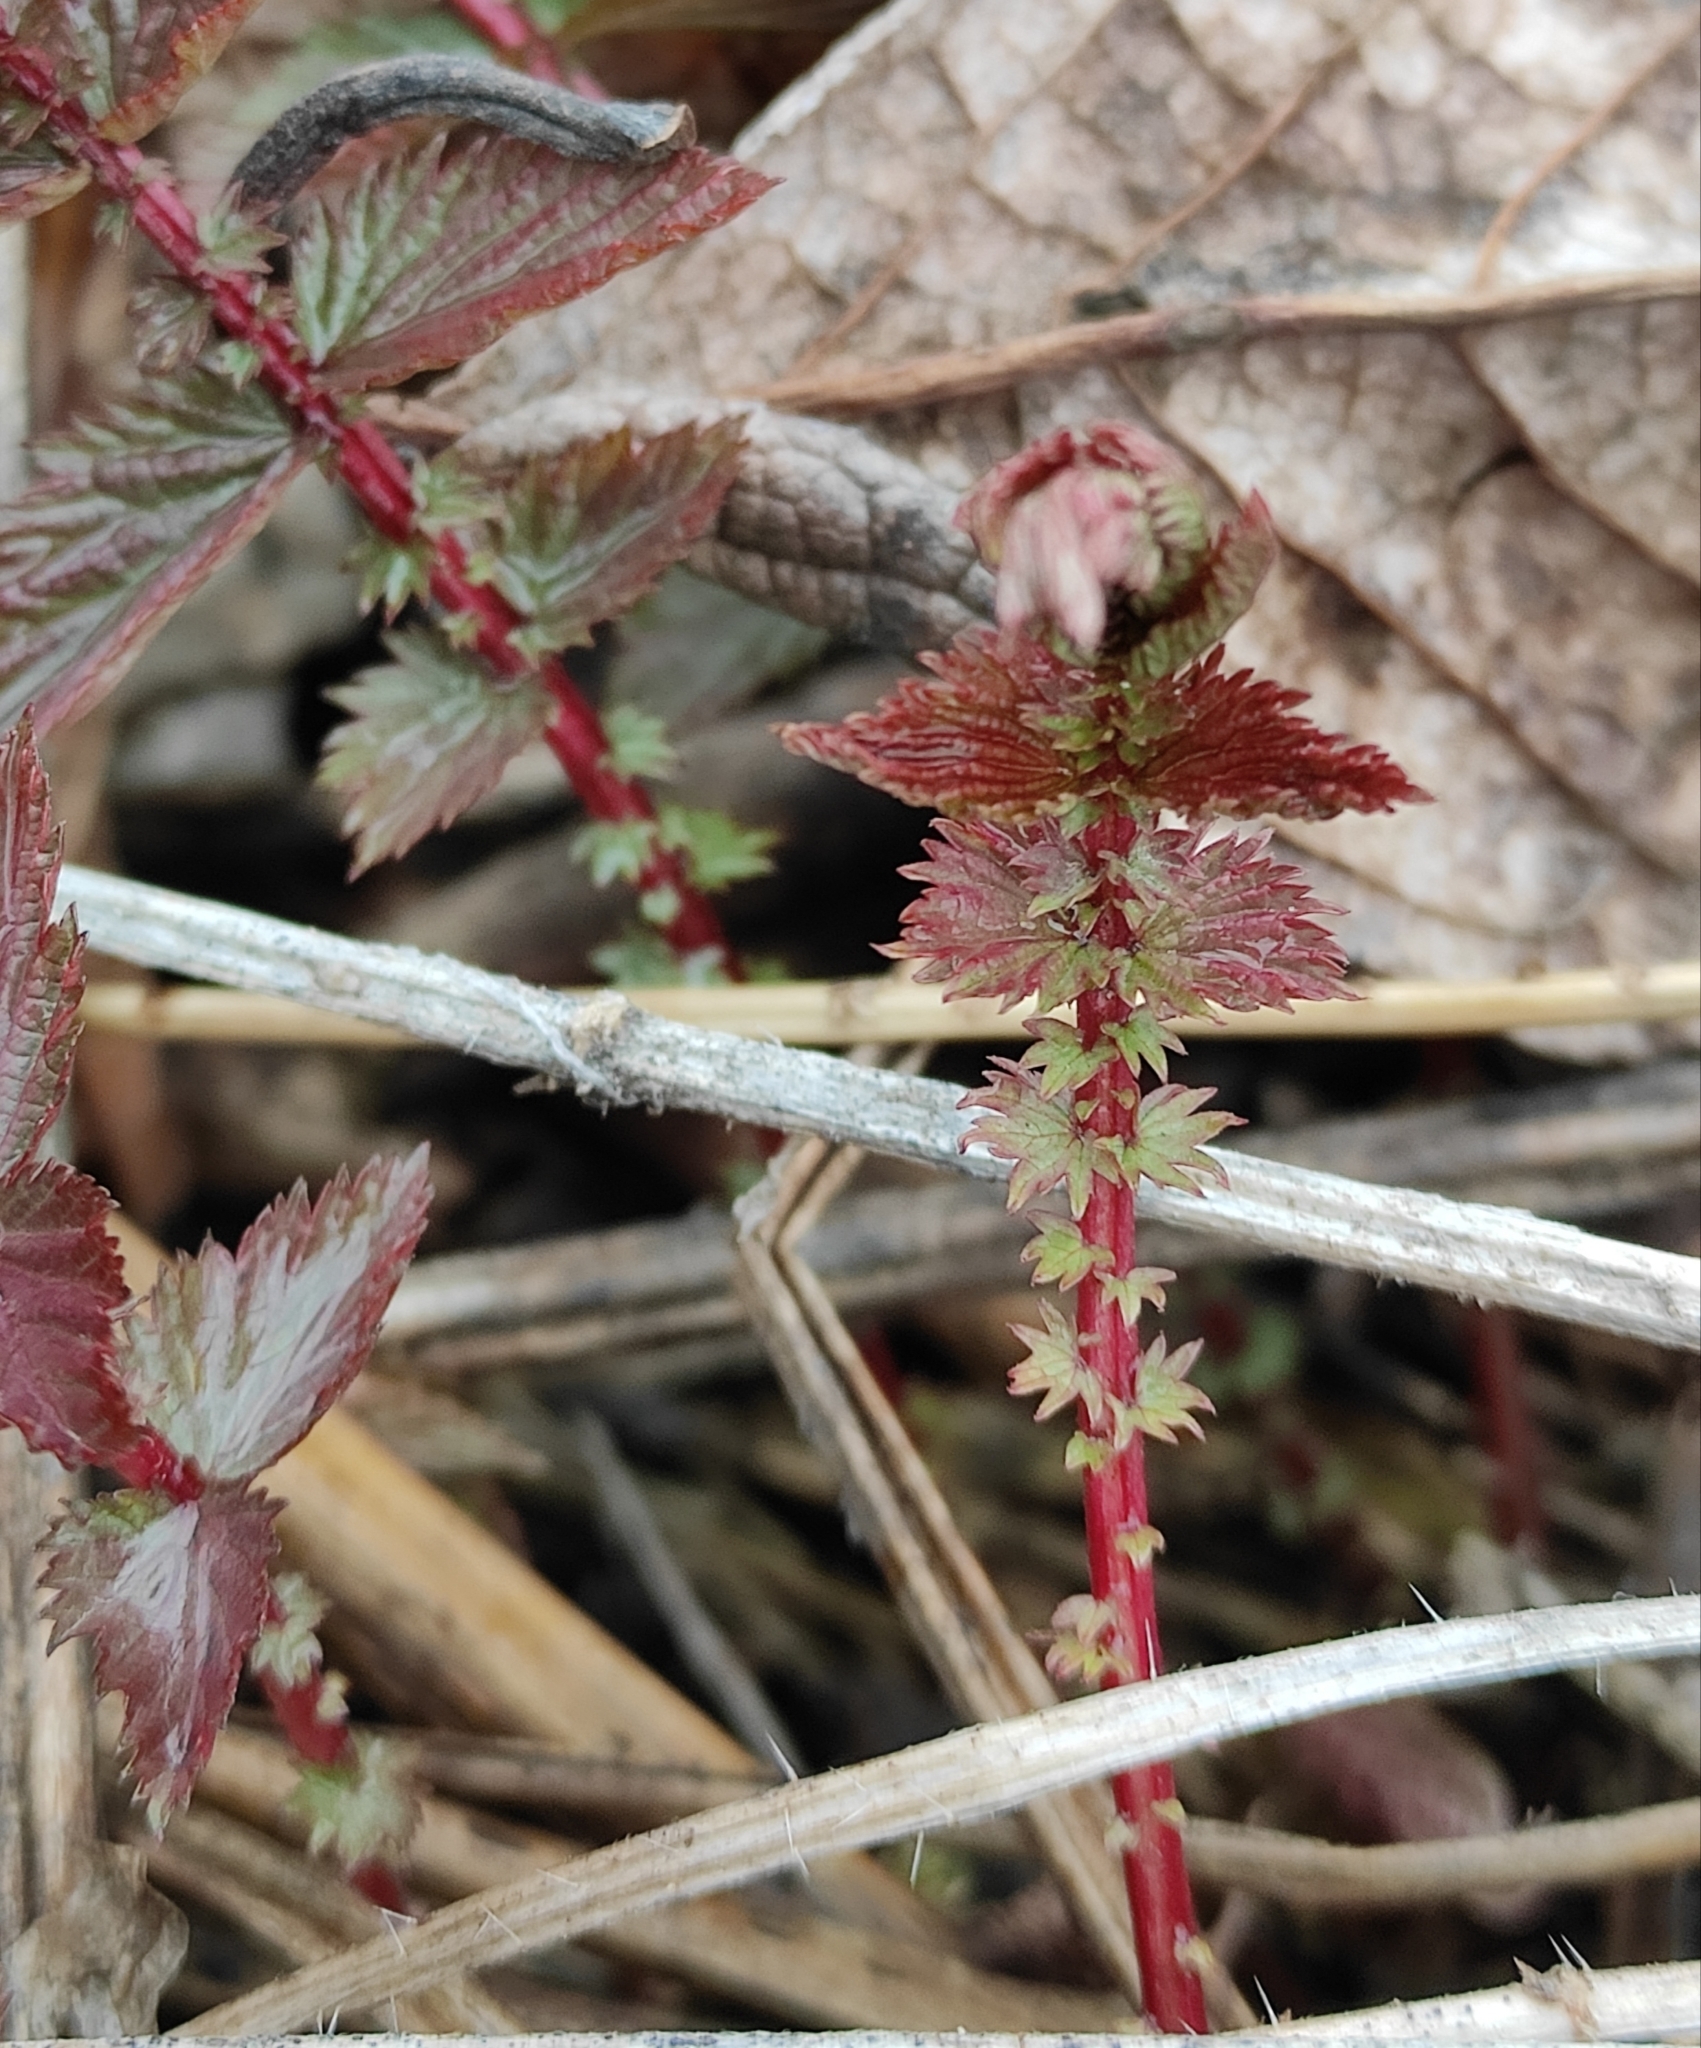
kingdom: Plantae
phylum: Tracheophyta
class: Magnoliopsida
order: Rosales
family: Rosaceae
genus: Filipendula
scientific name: Filipendula ulmaria
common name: Meadowsweet
